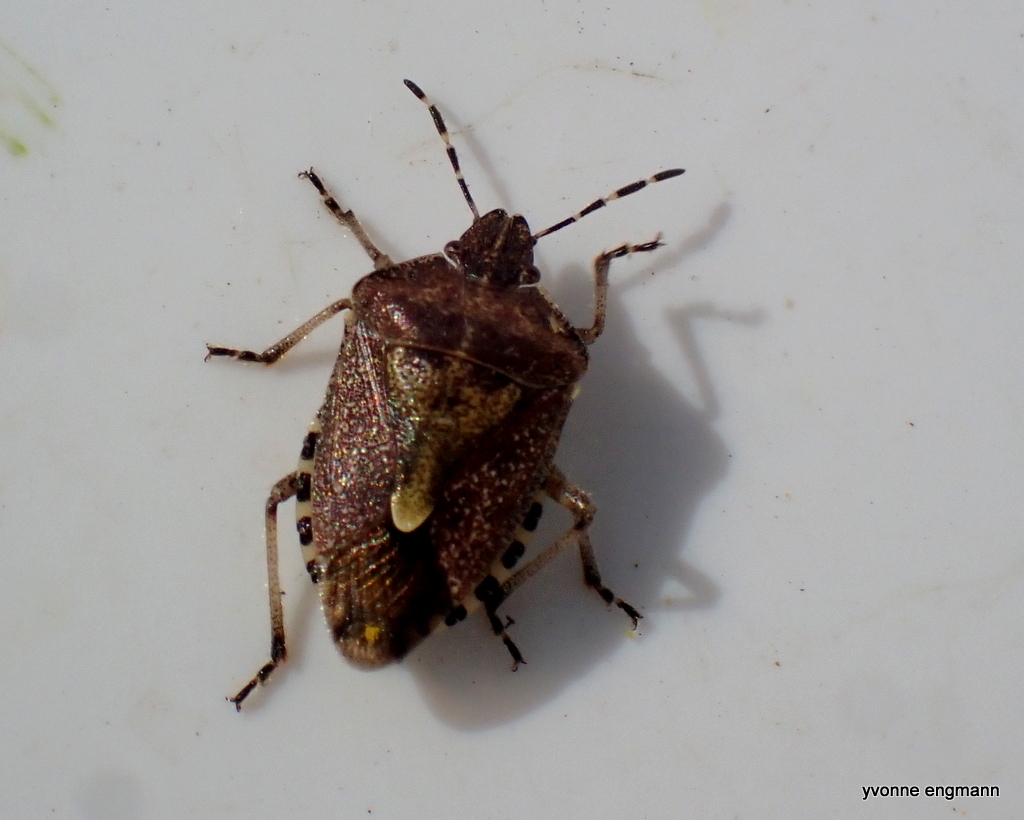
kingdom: Animalia
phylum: Arthropoda
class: Insecta
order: Hemiptera
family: Pentatomidae
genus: Dolycoris
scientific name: Dolycoris baccarum
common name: Sloe bug
